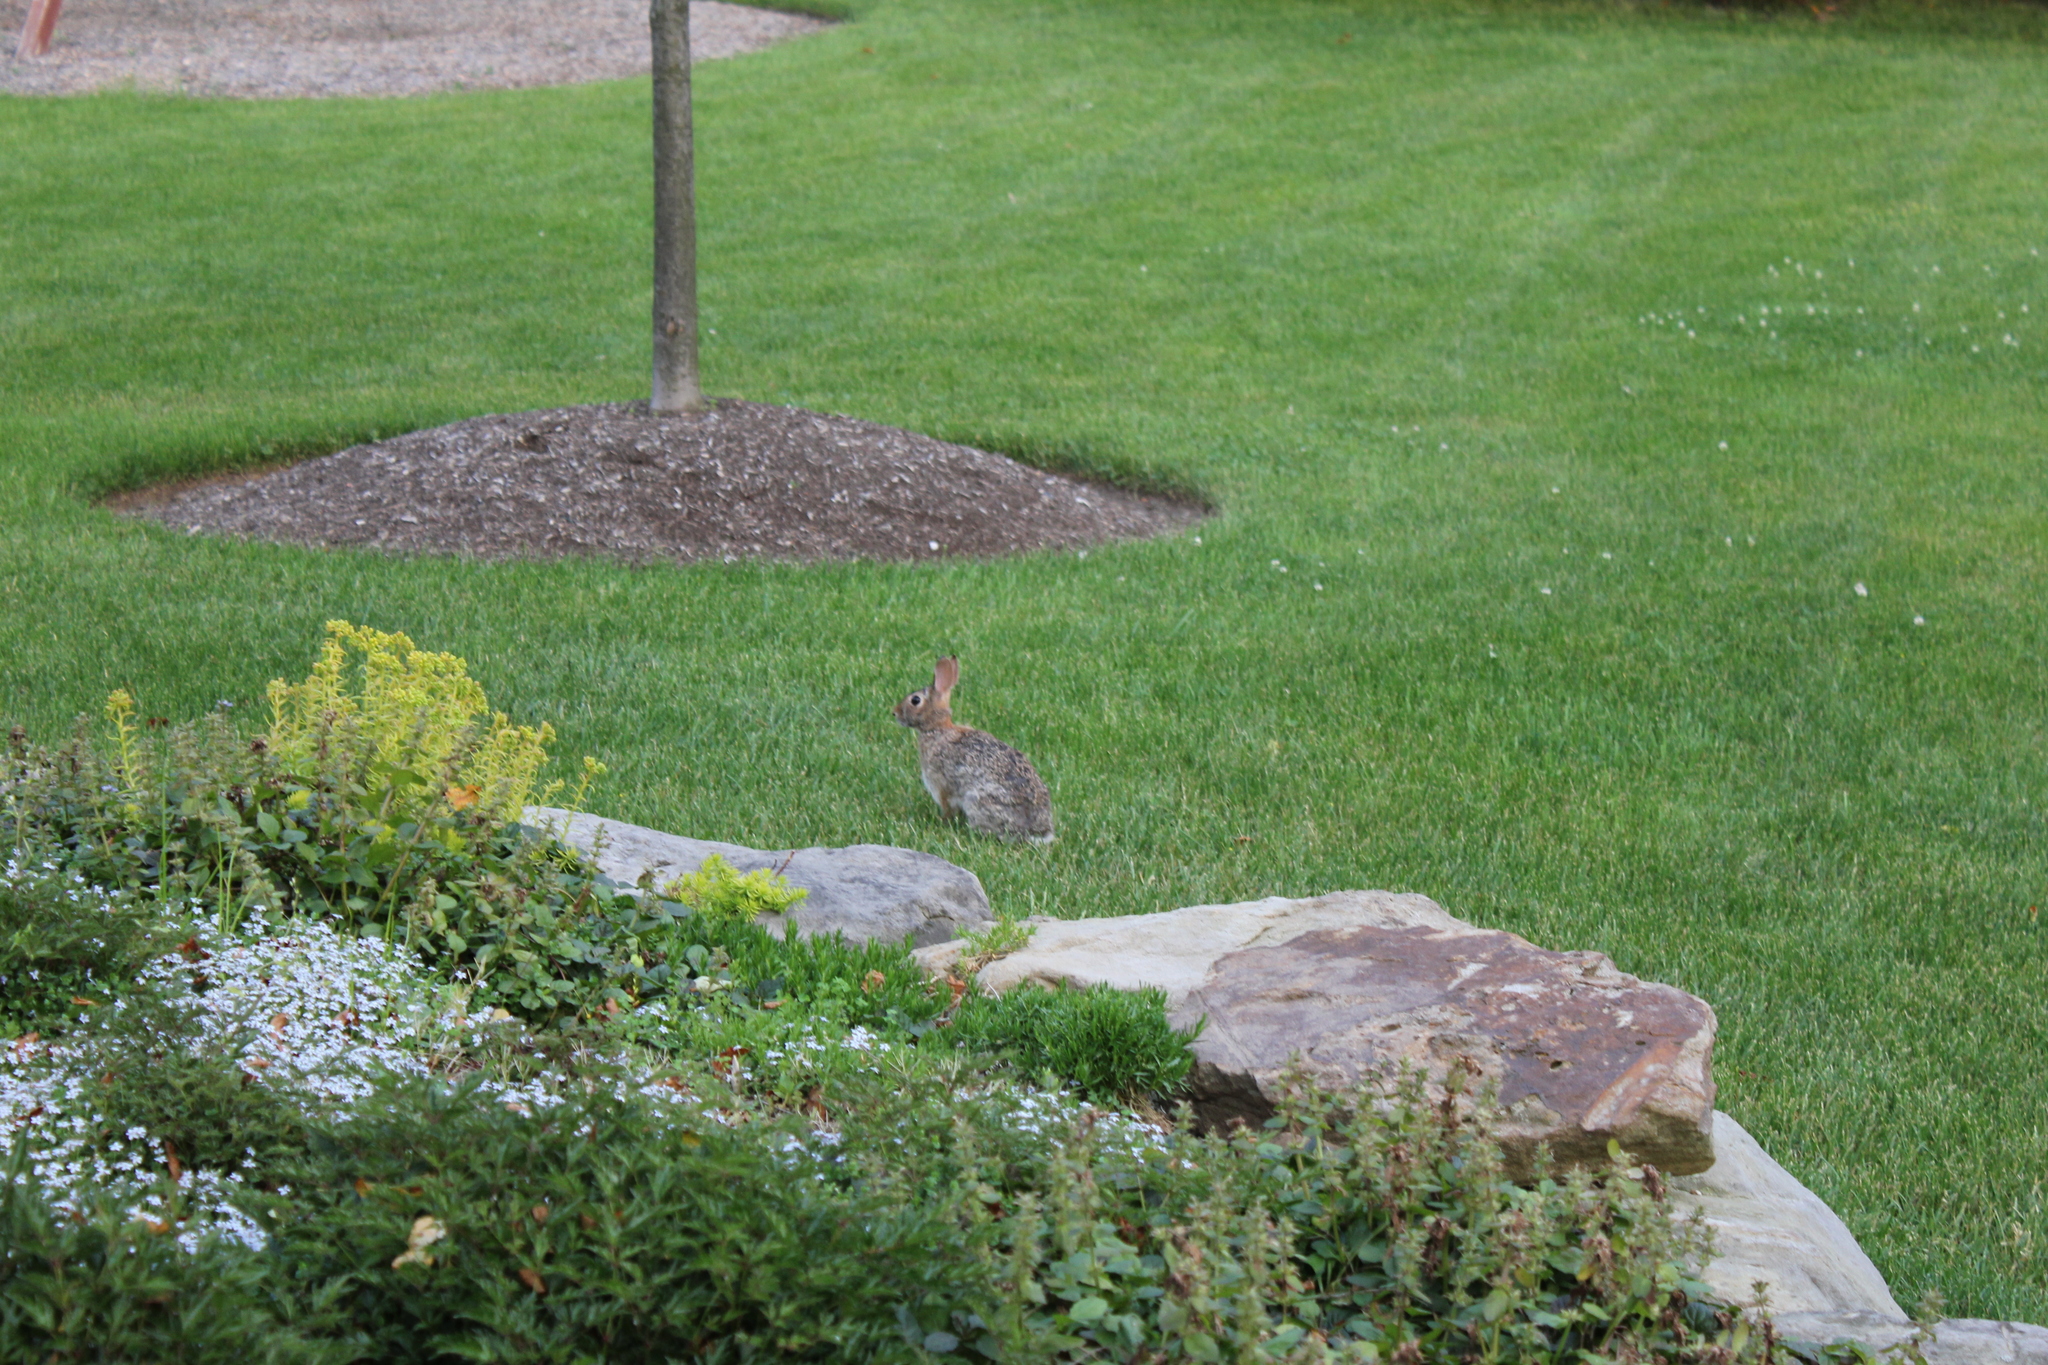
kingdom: Animalia
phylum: Chordata
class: Mammalia
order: Lagomorpha
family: Leporidae
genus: Sylvilagus
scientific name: Sylvilagus floridanus
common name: Eastern cottontail
